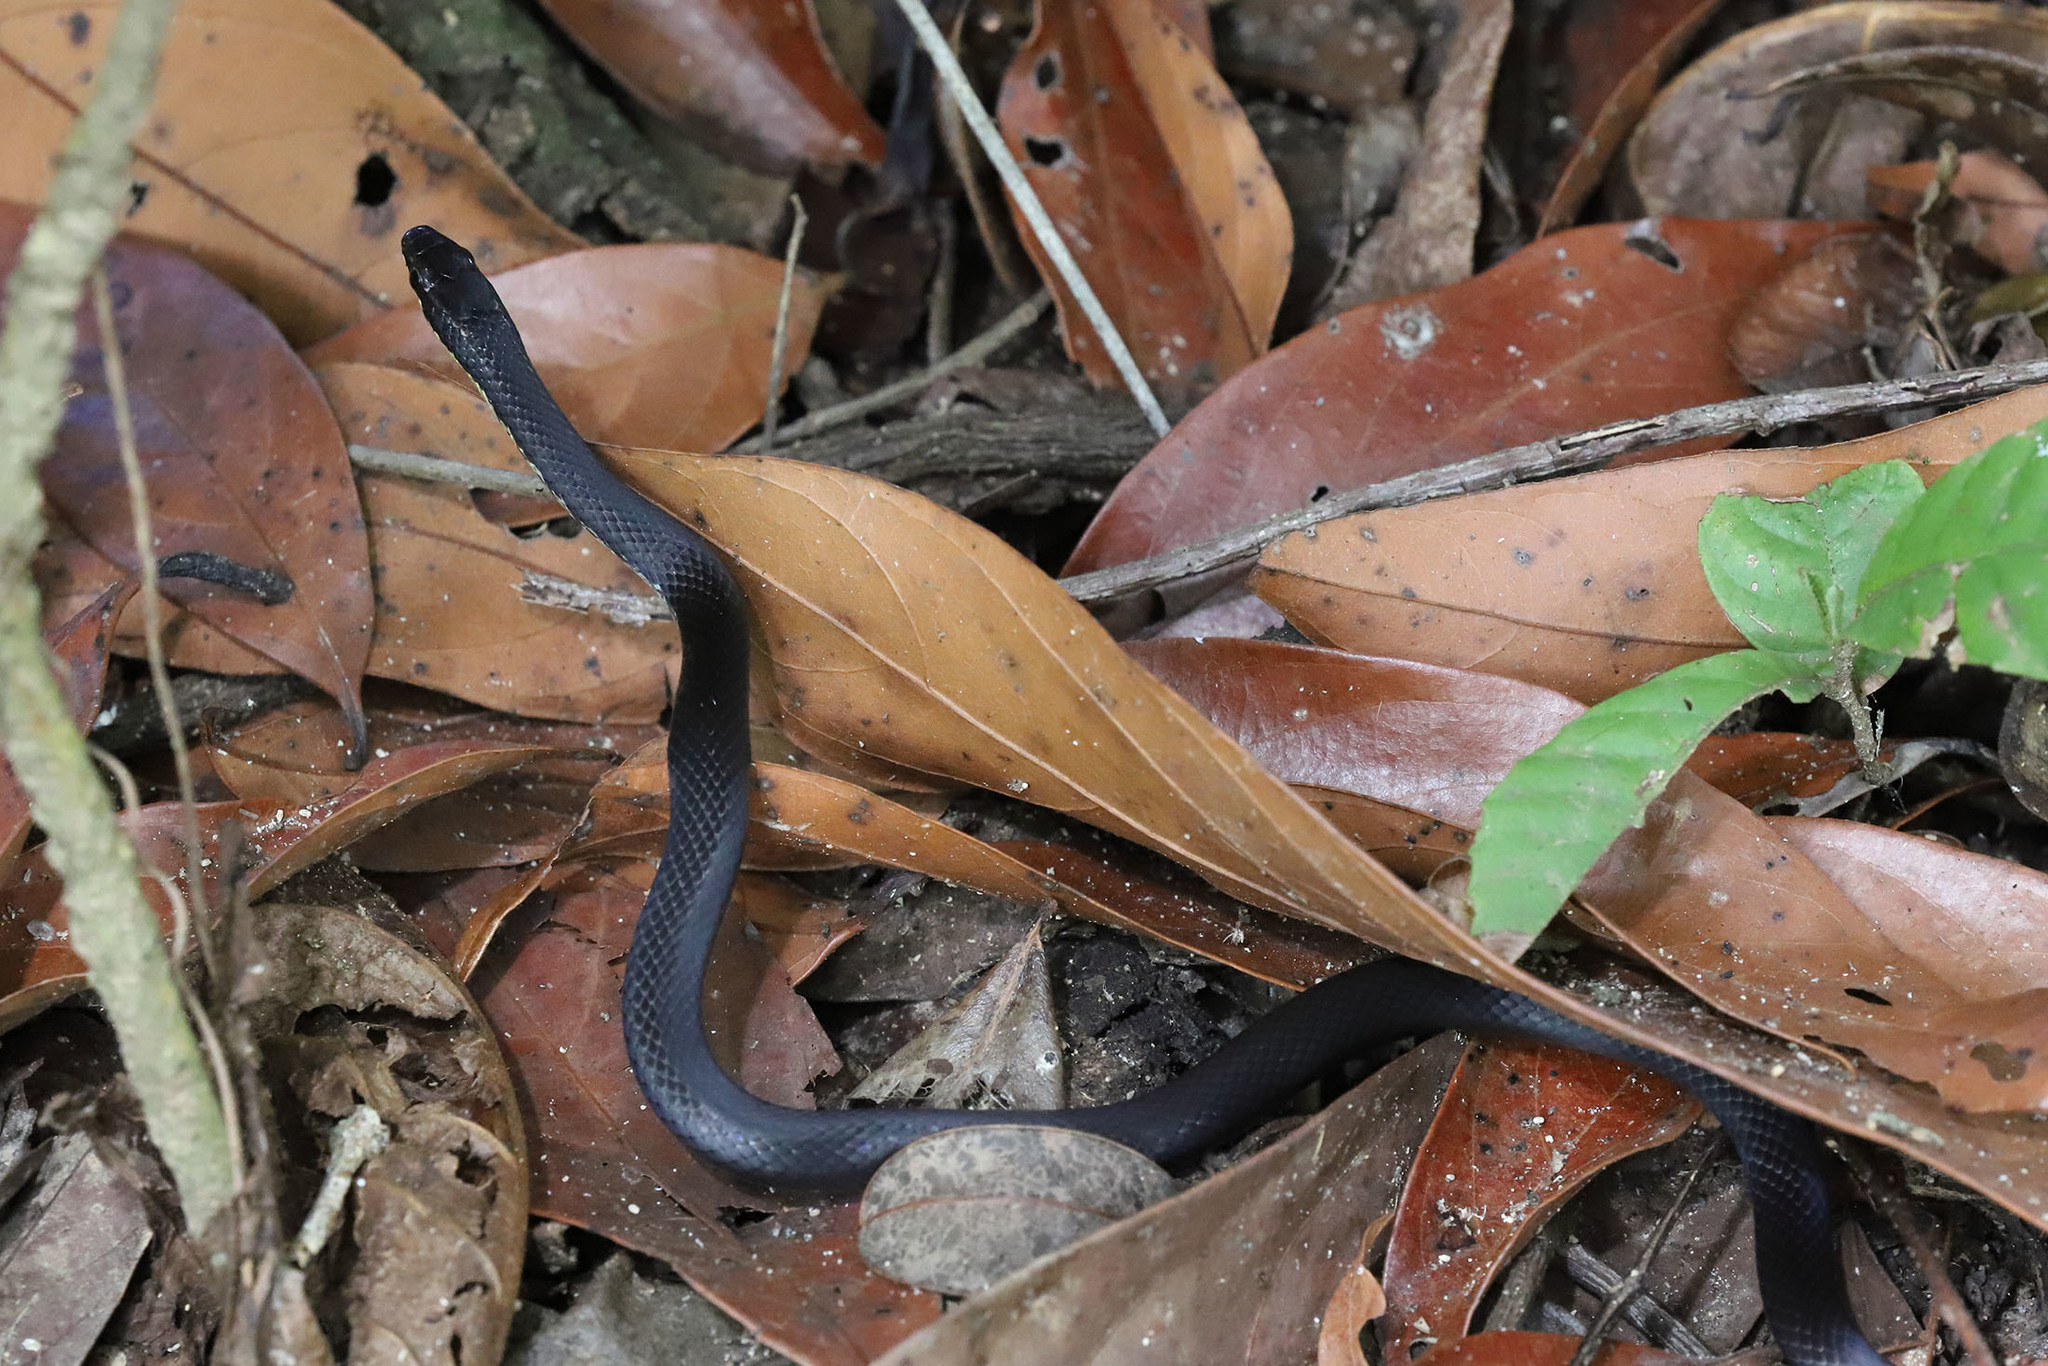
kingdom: Animalia
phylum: Chordata
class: Squamata
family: Colubridae
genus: Hypsirhynchus
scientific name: Hypsirhynchus parvifrons
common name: Cope's antilles snake
